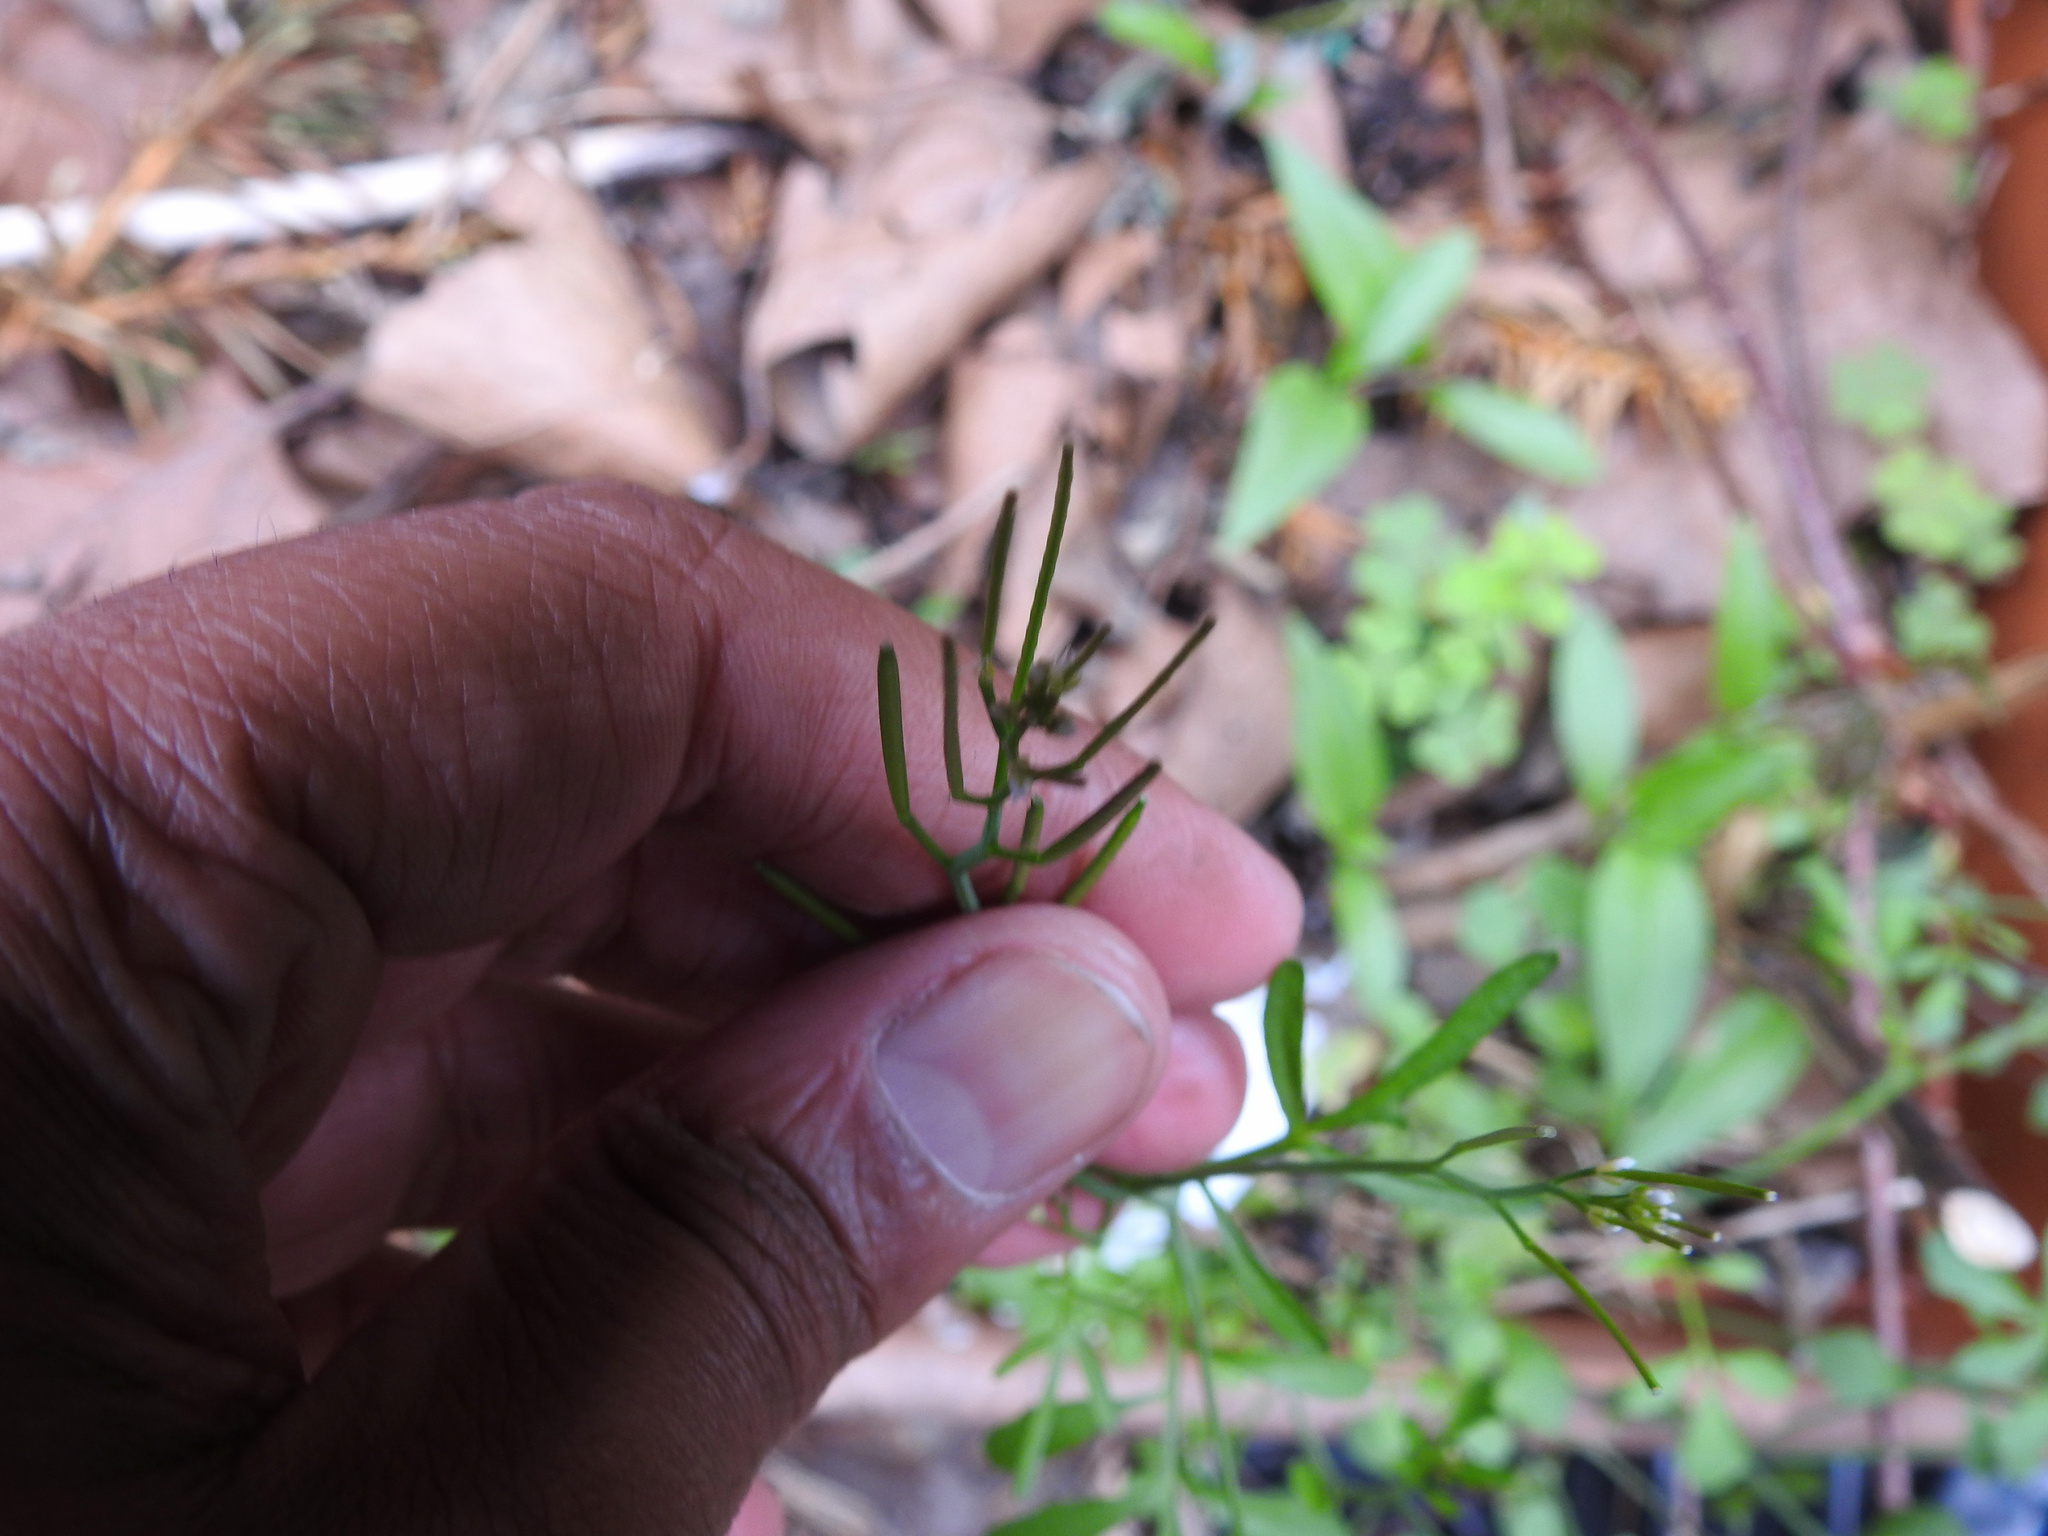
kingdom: Plantae
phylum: Tracheophyta
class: Magnoliopsida
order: Brassicales
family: Brassicaceae
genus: Cardamine
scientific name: Cardamine hirsuta
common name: Hairy bittercress
